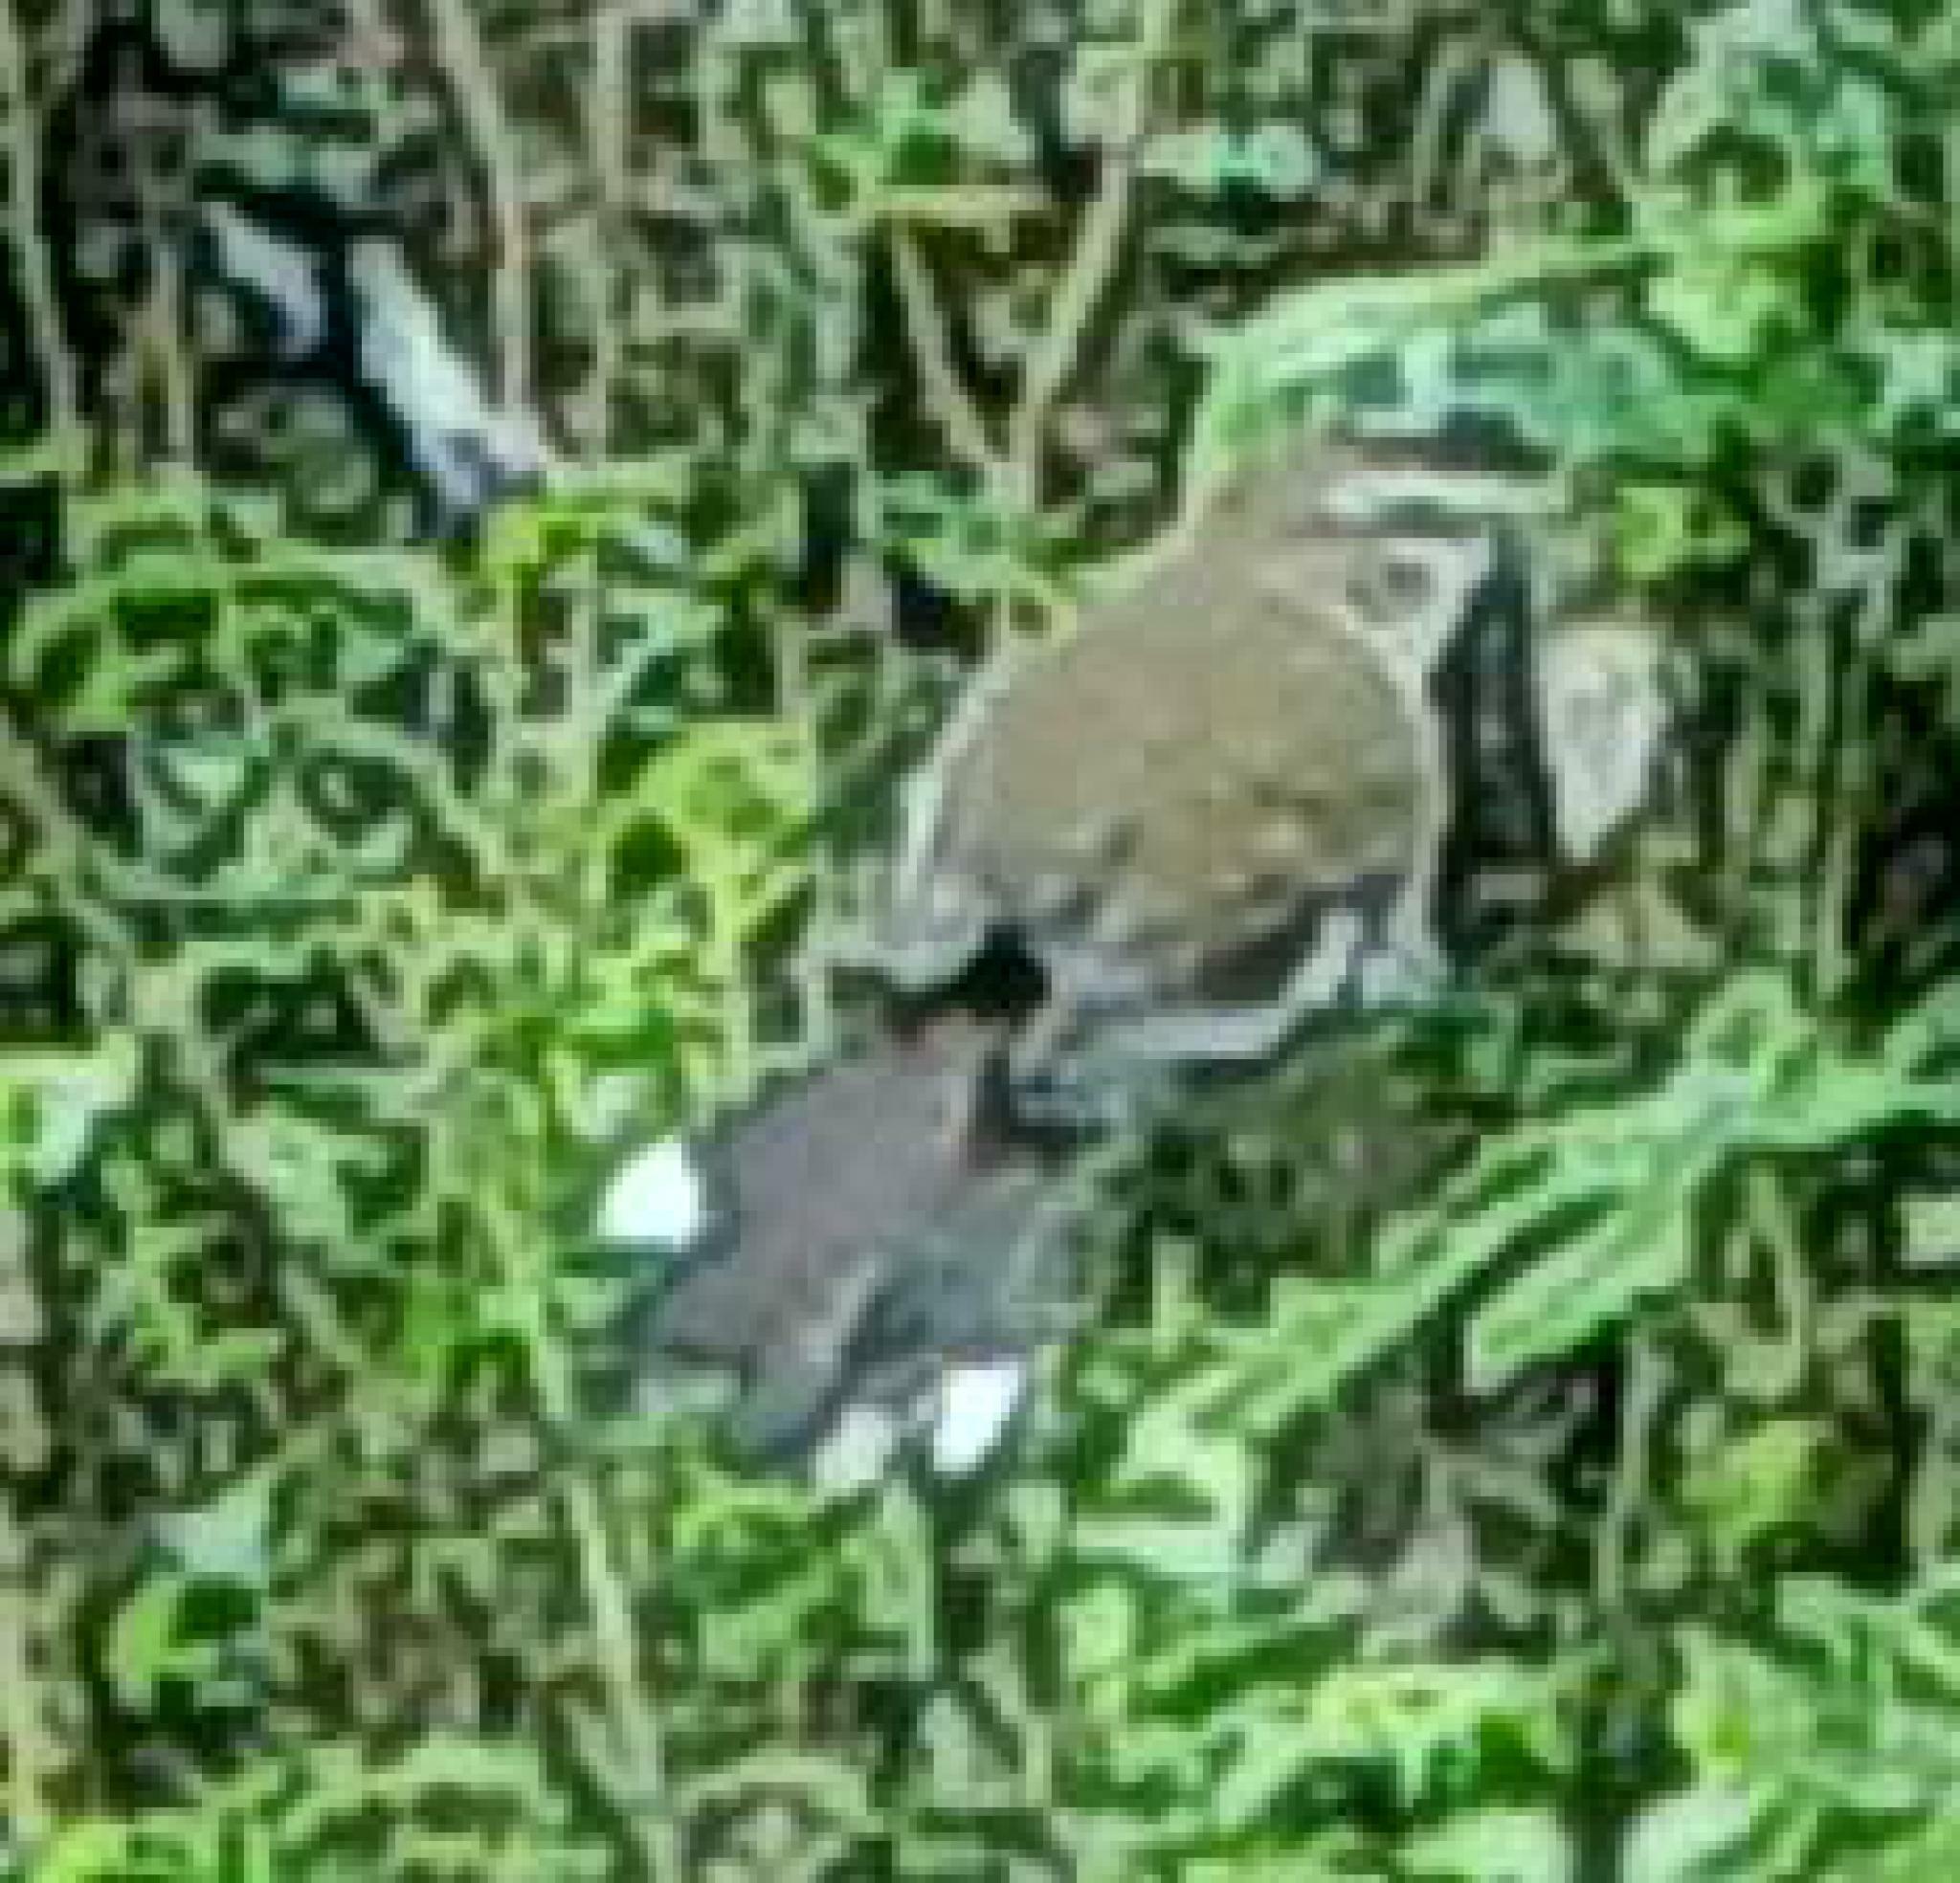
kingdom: Animalia
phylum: Chordata
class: Aves
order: Passeriformes
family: Muscicapidae
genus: Erythropygia
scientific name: Erythropygia signata
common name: Brown scrub robin
